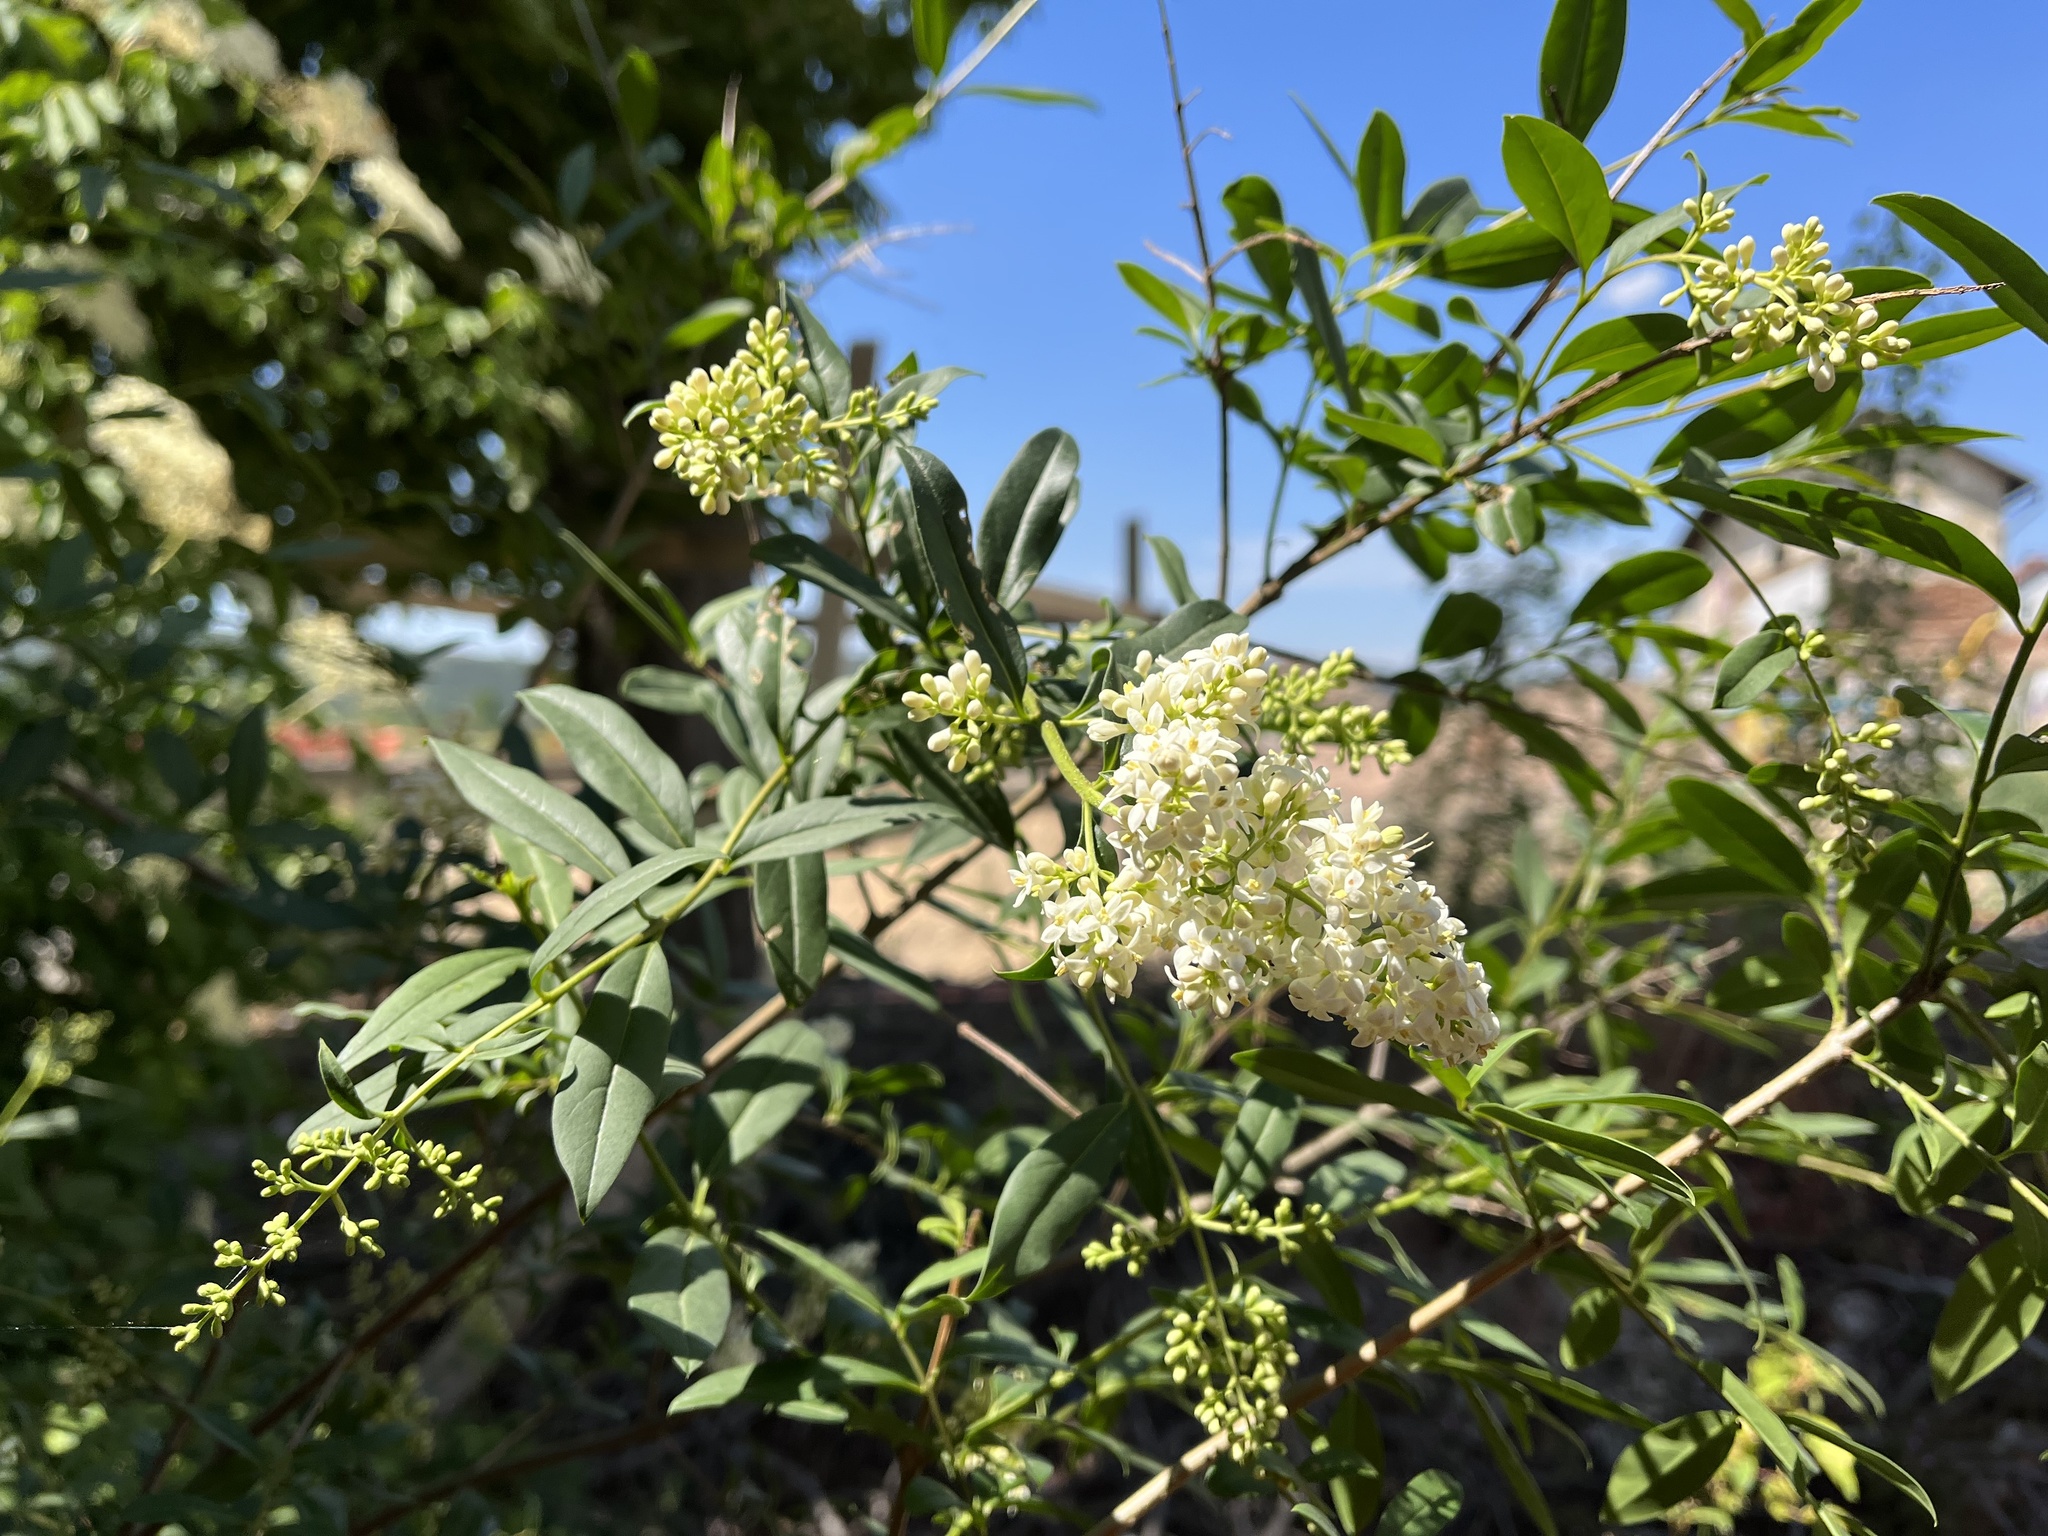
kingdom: Plantae
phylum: Tracheophyta
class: Magnoliopsida
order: Lamiales
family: Oleaceae
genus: Ligustrum
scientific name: Ligustrum vulgare
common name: Wild privet
